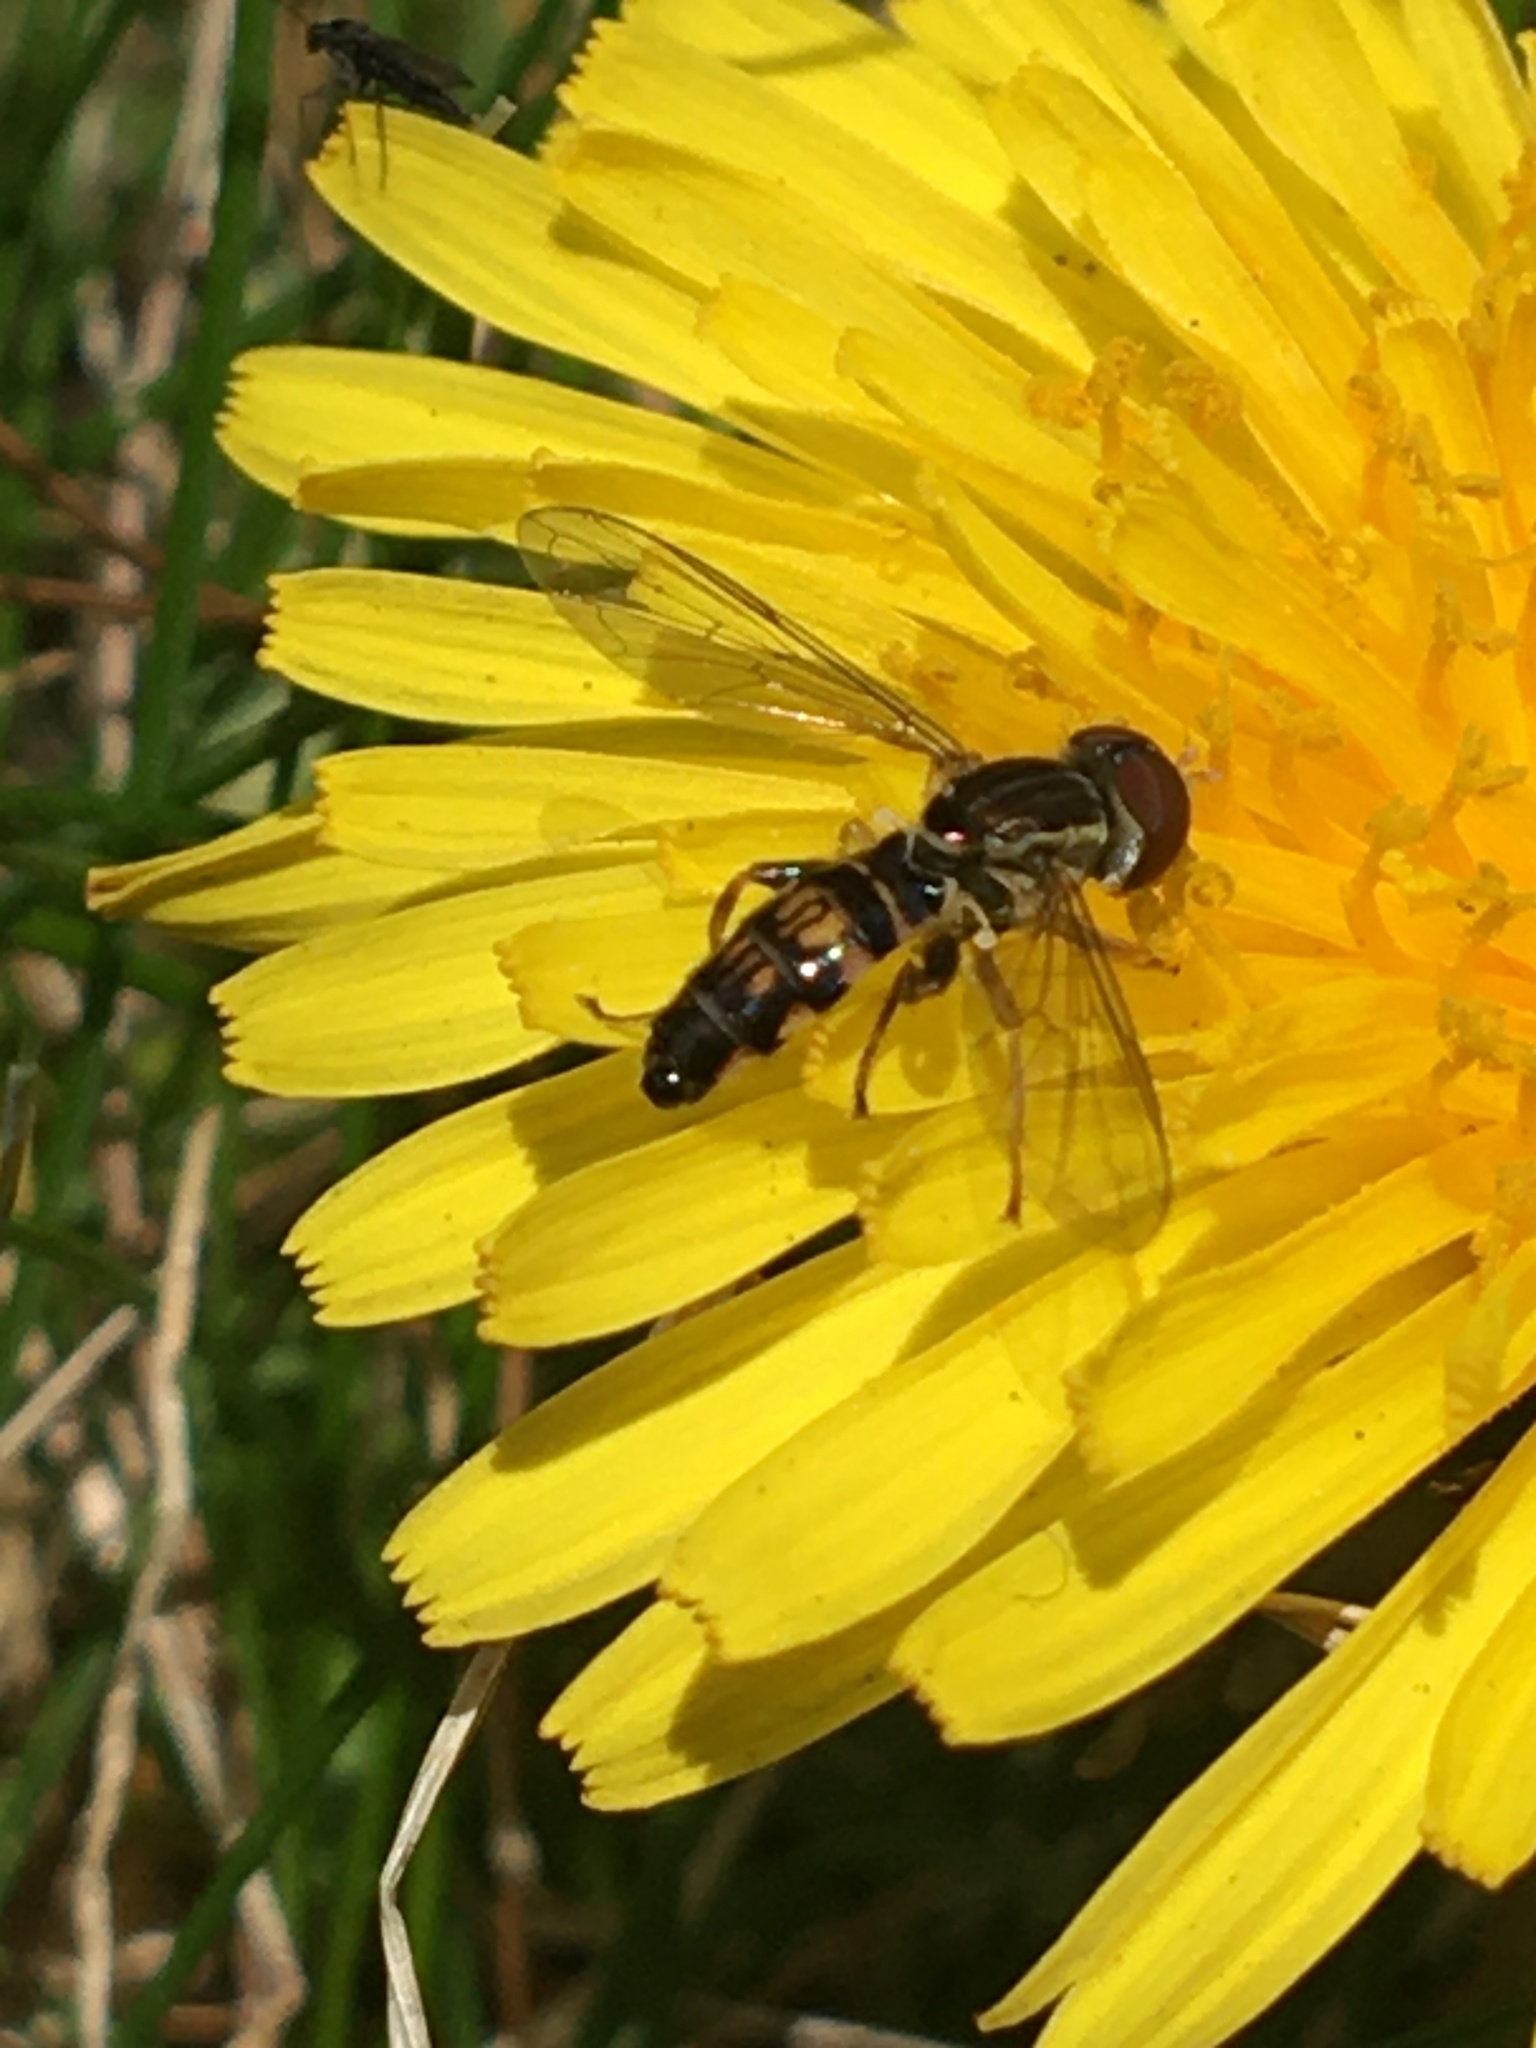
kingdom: Animalia
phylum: Arthropoda
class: Insecta
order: Diptera
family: Syrphidae
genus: Toxomerus
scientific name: Toxomerus geminatus
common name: Eastern calligrapher
